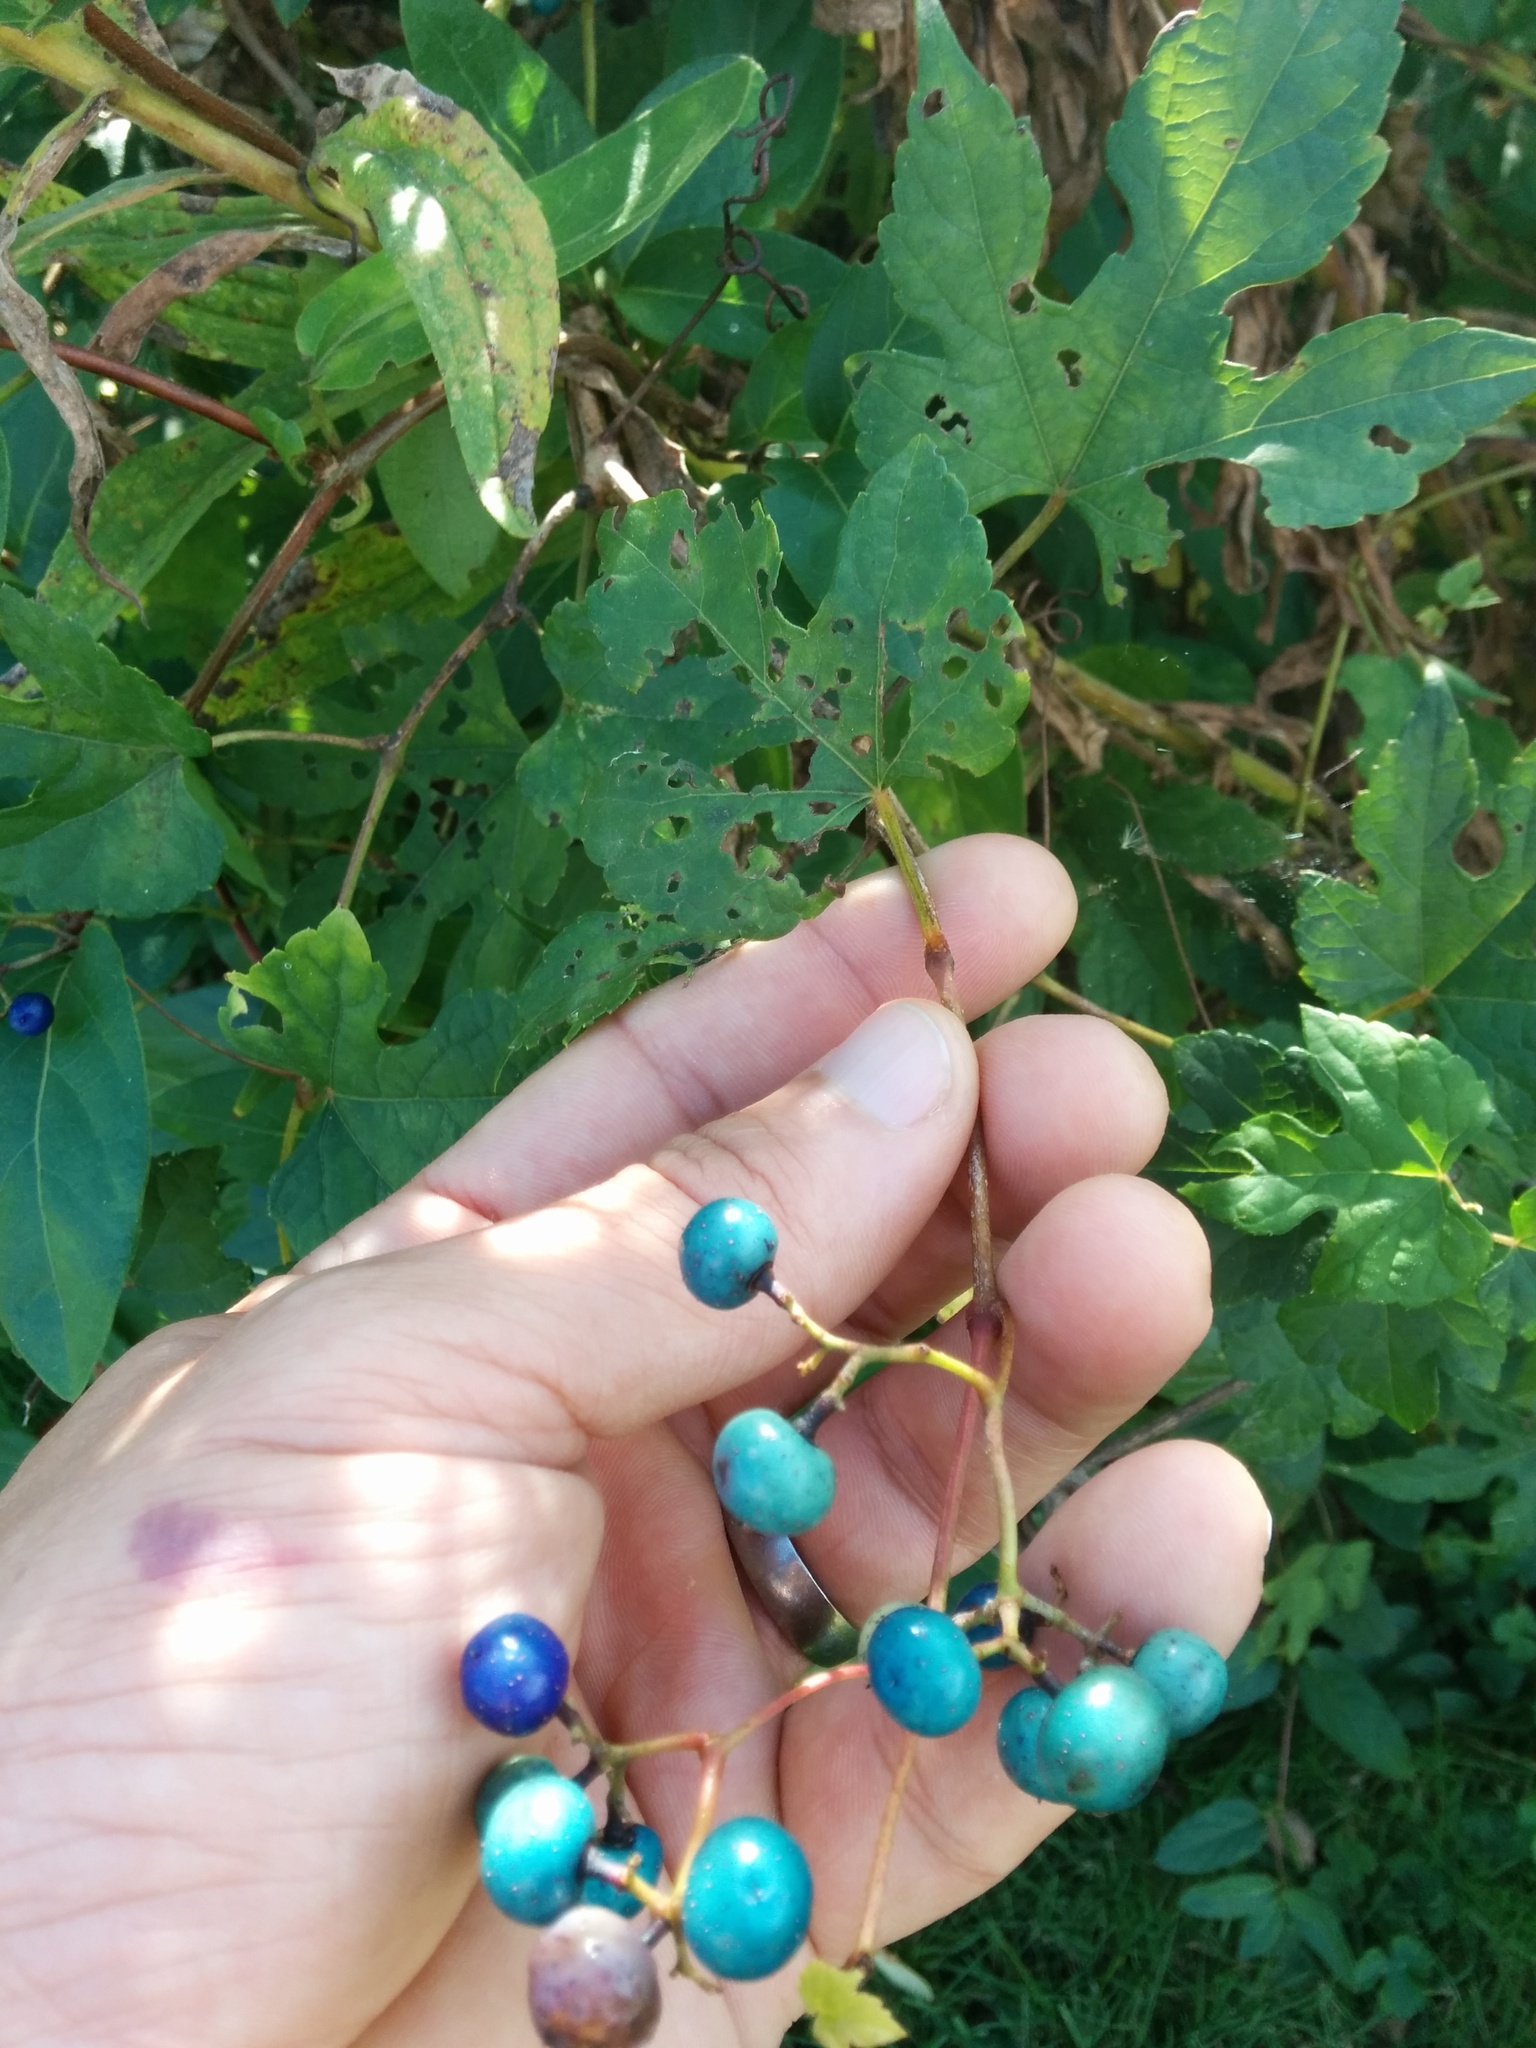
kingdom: Plantae
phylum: Tracheophyta
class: Magnoliopsida
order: Vitales
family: Vitaceae
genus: Ampelopsis
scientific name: Ampelopsis glandulosa
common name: Amur peppervine
